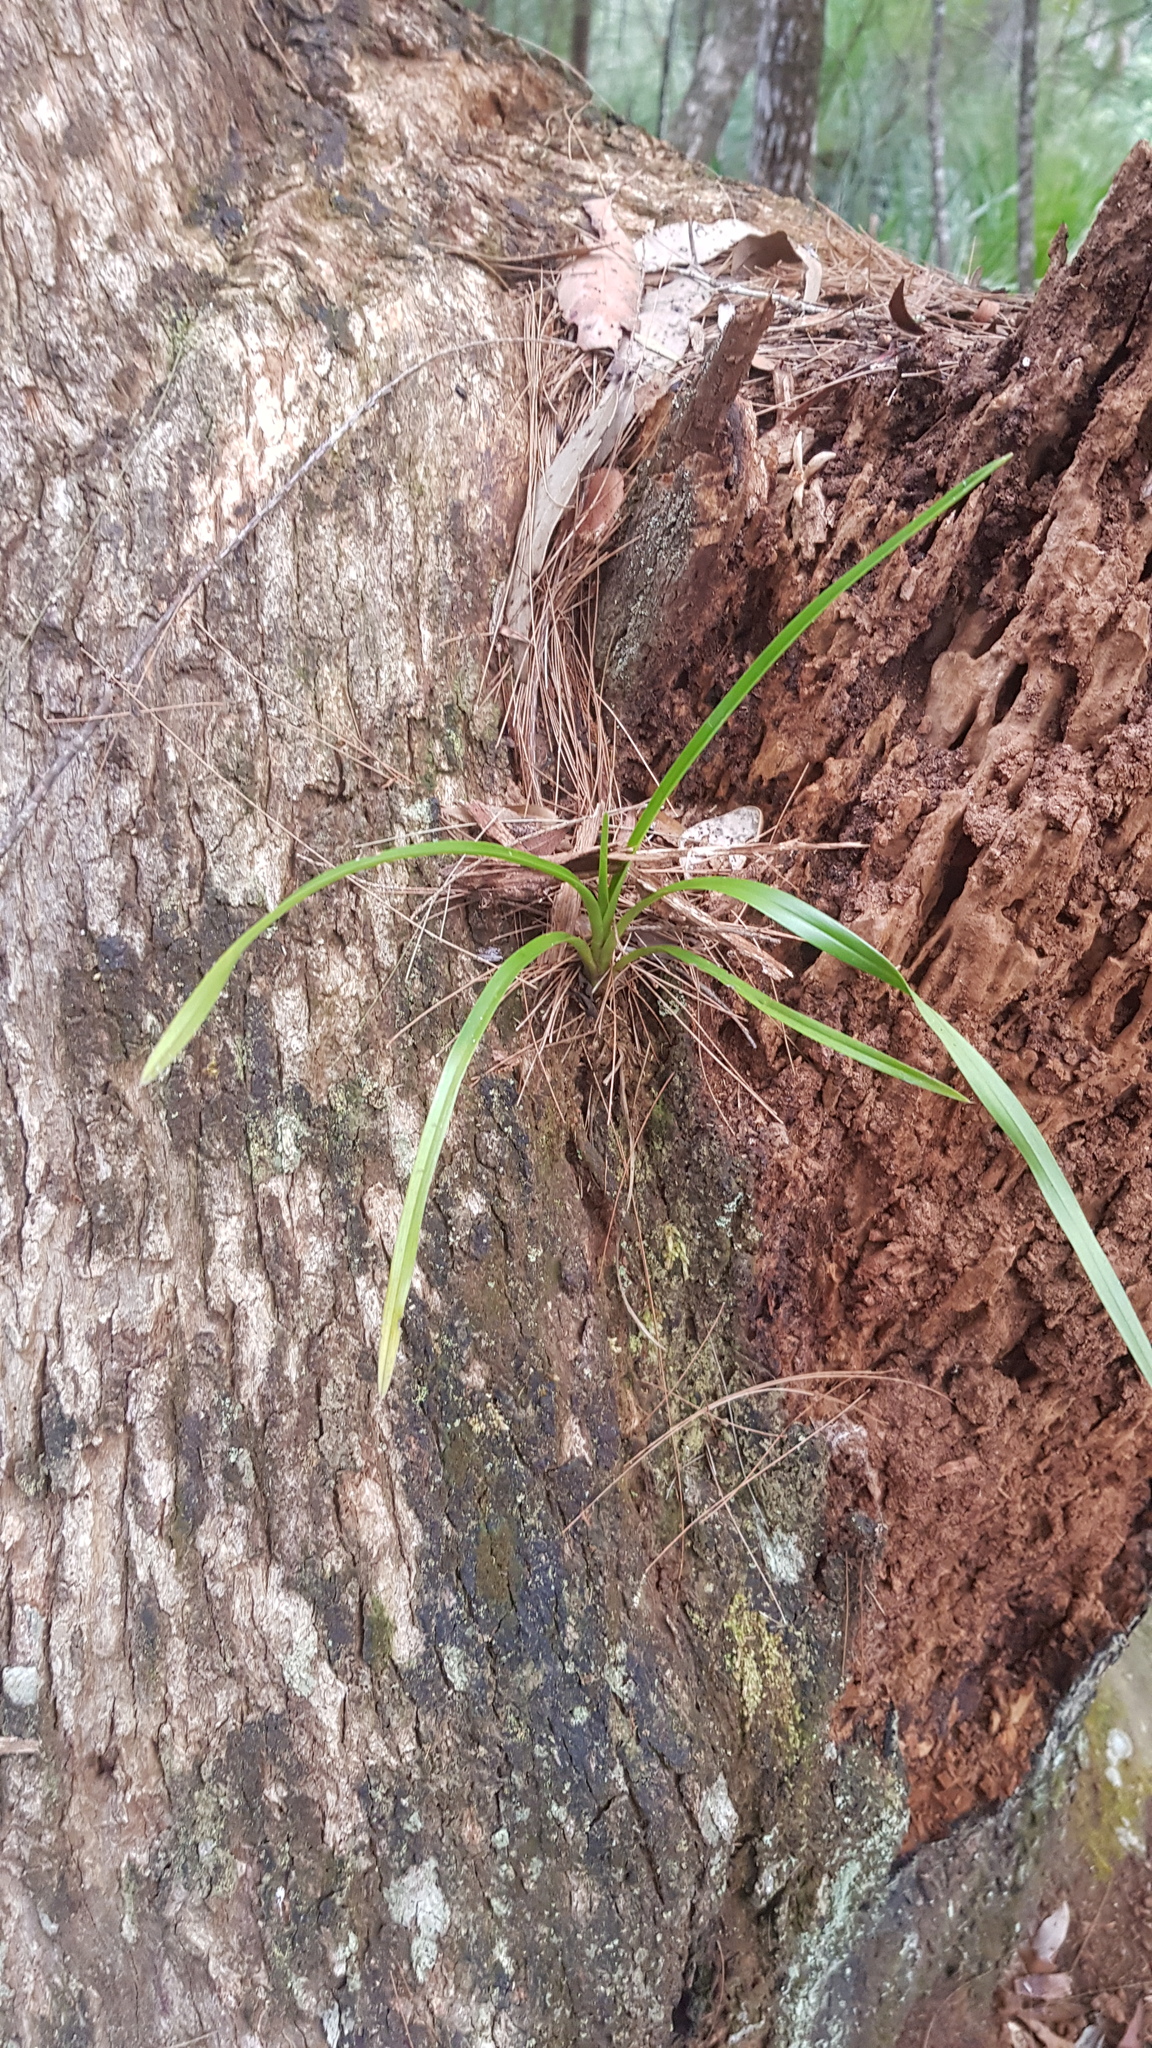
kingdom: Plantae
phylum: Tracheophyta
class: Liliopsida
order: Asparagales
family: Orchidaceae
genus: Cymbidium
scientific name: Cymbidium suave
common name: Snake orchid
